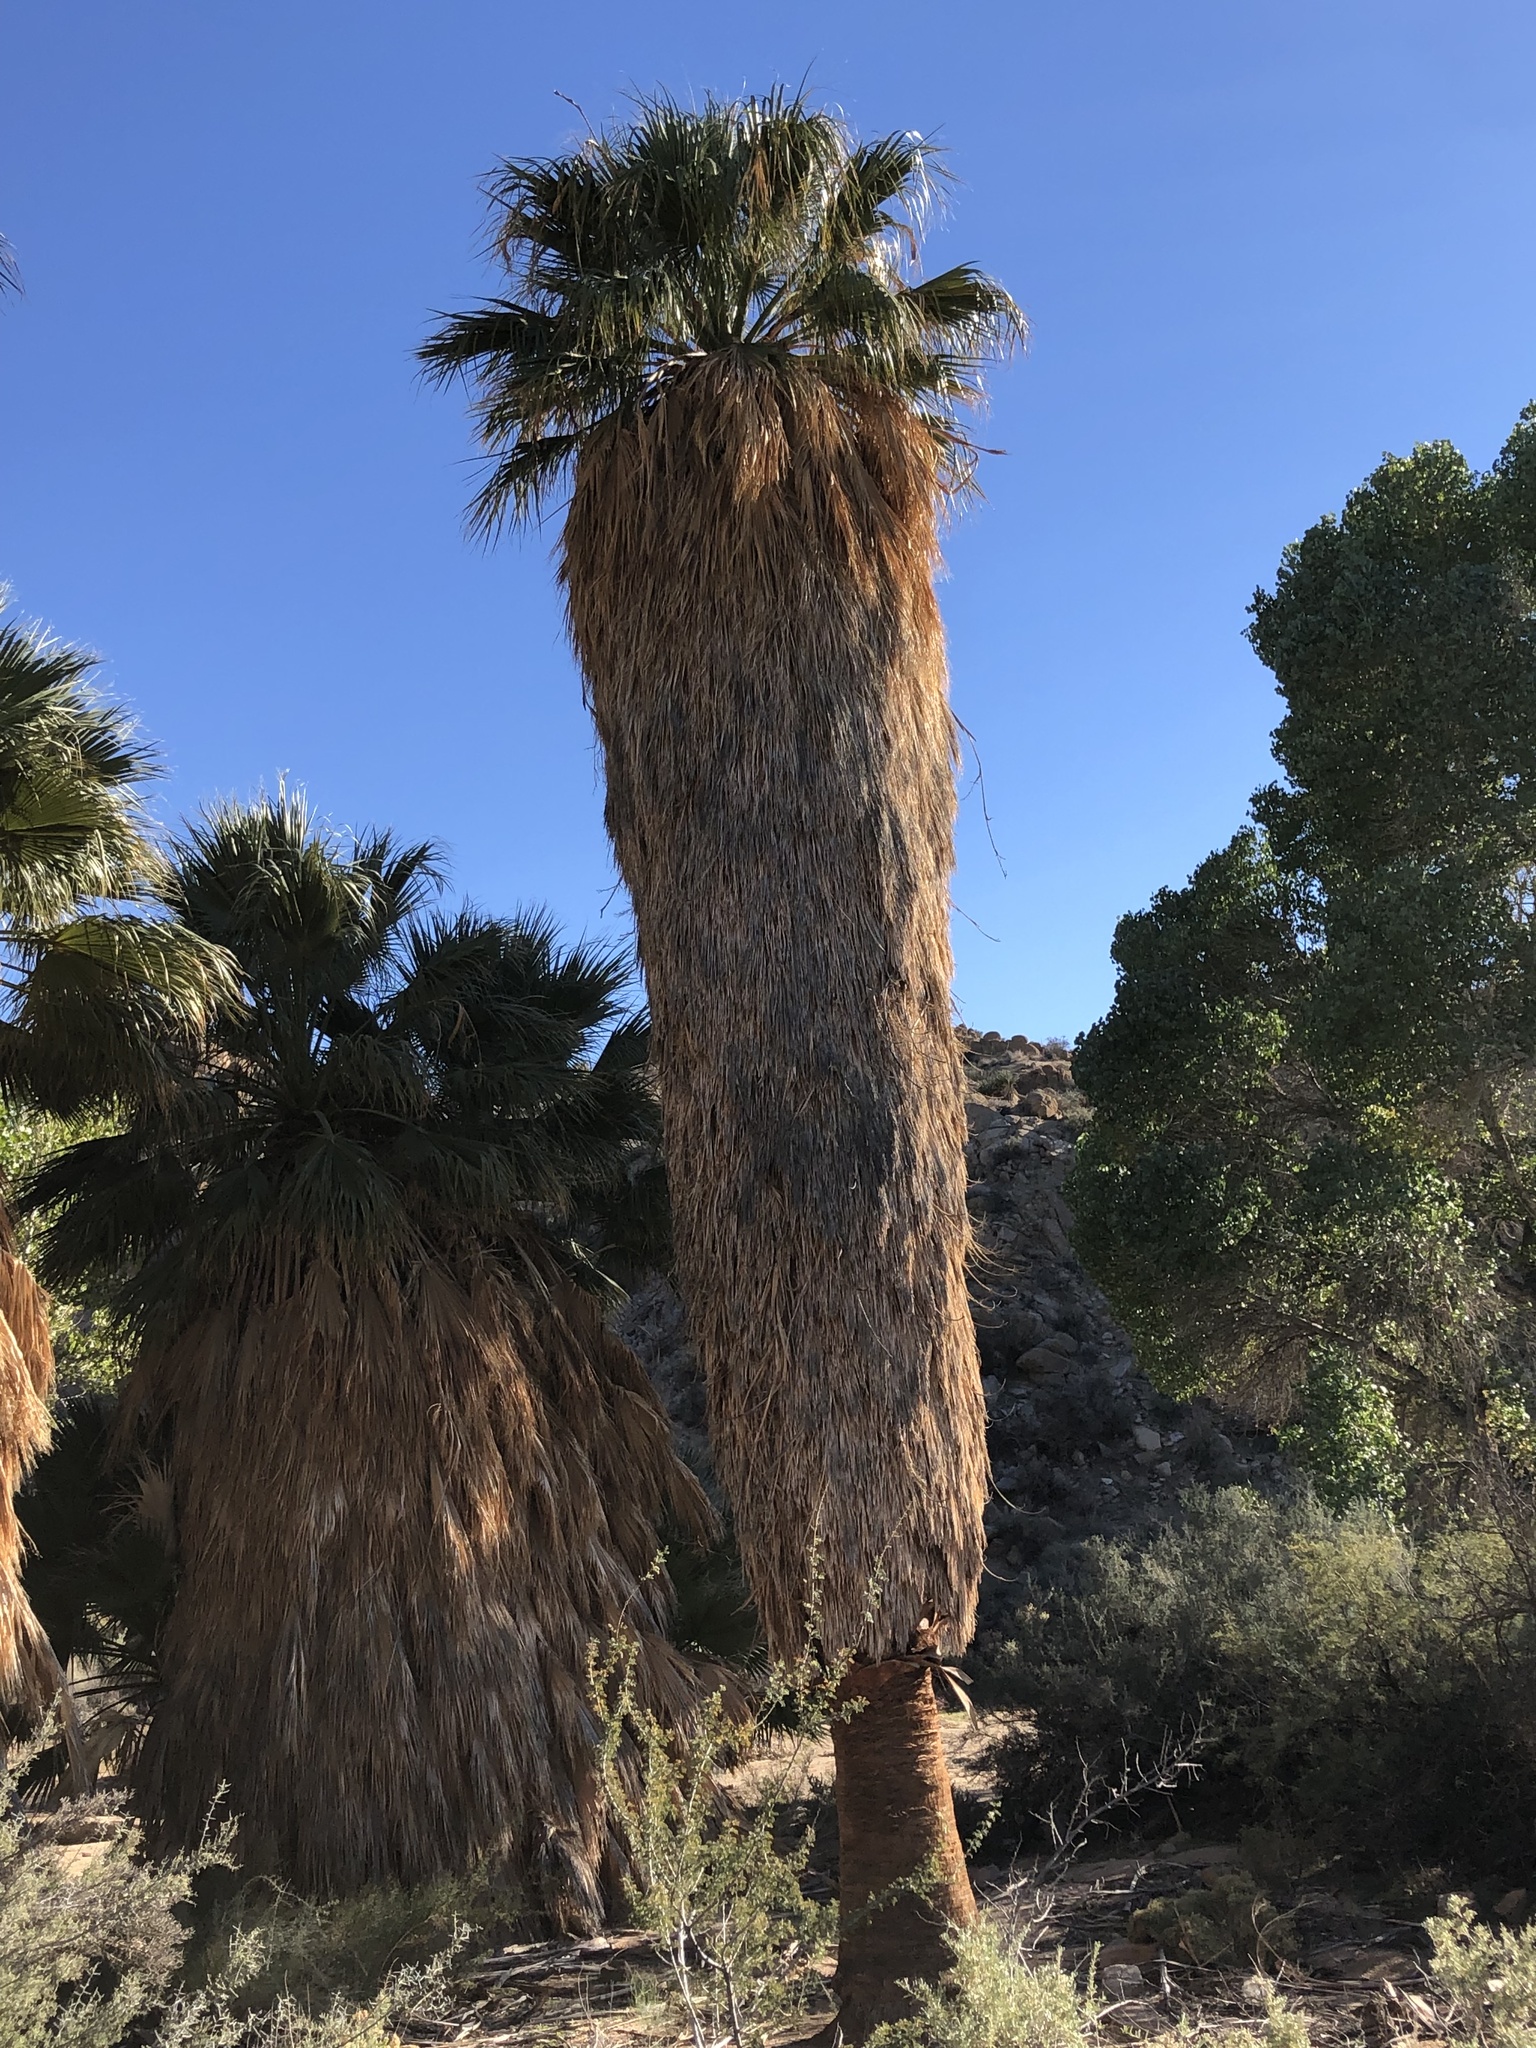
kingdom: Plantae
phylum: Tracheophyta
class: Liliopsida
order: Arecales
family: Arecaceae
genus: Washingtonia
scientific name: Washingtonia filifera
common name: California fan palm
